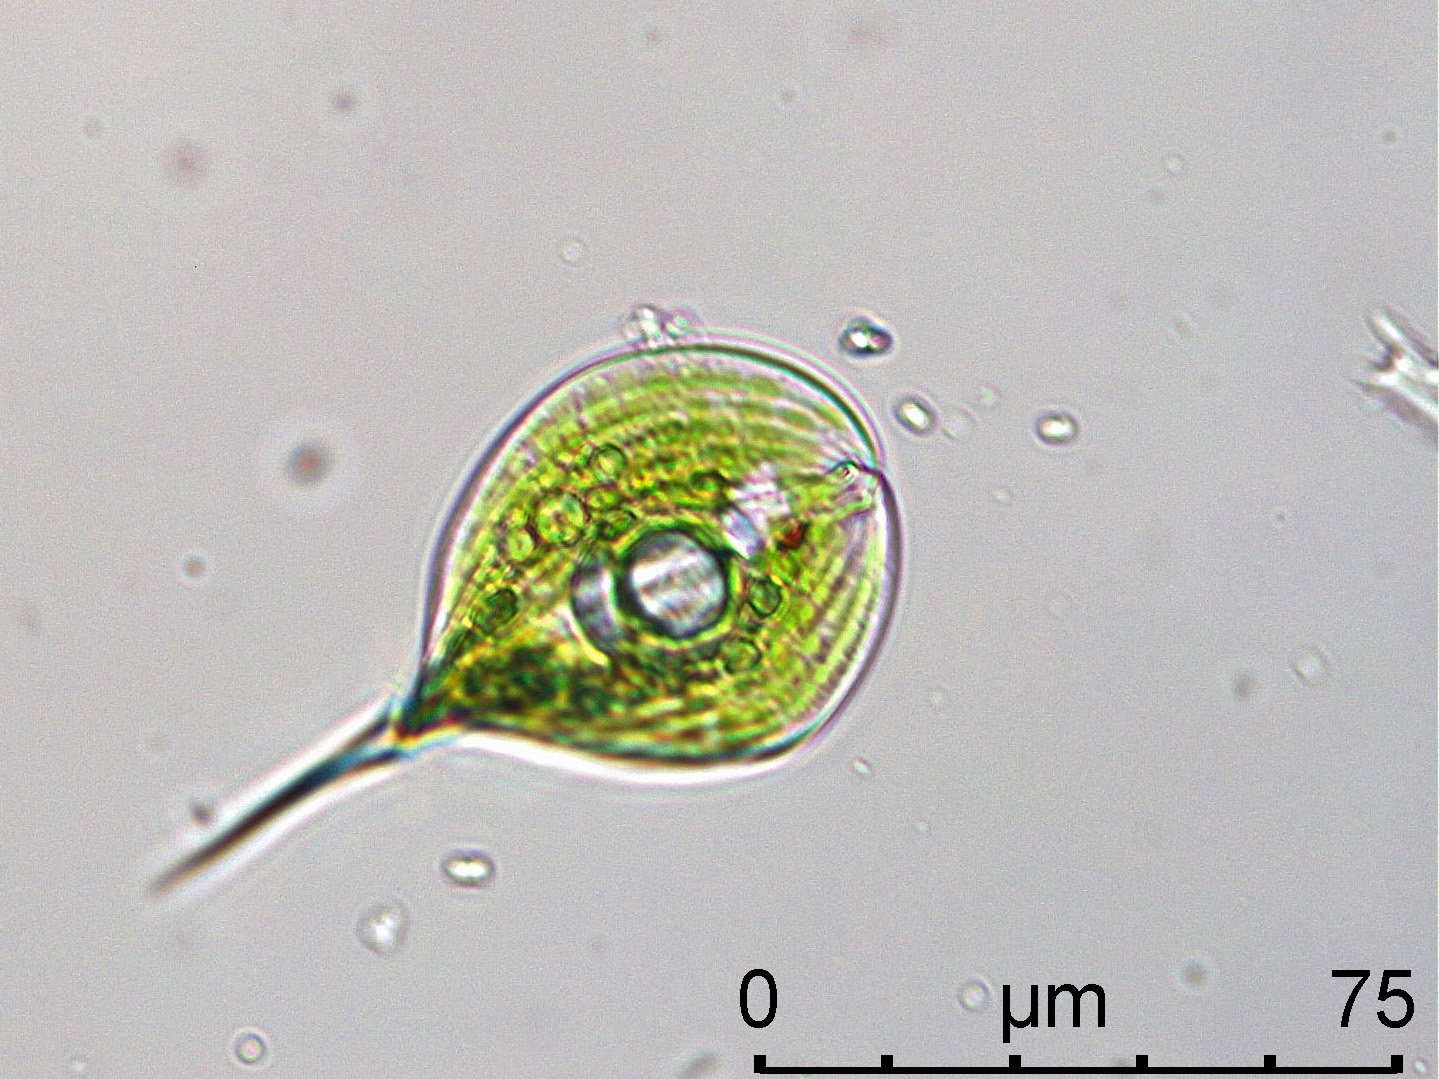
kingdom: Protozoa
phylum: Euglenozoa
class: Euglenoidea
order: Euglenida
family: Phacidae
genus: Phacus
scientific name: Phacus
